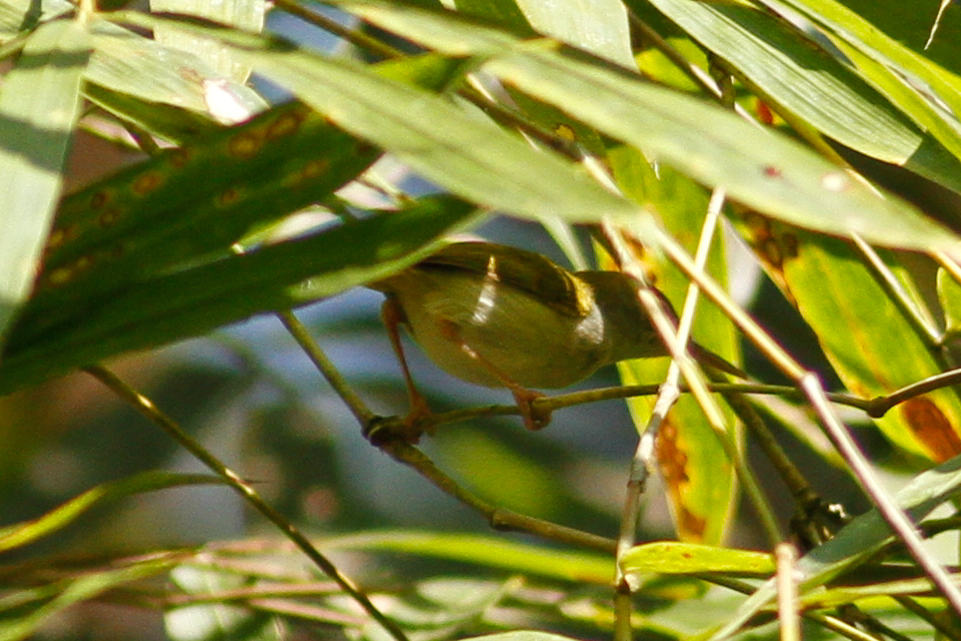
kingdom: Animalia
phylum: Chordata
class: Aves
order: Passeriformes
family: Nectariniidae
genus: Anthreptes
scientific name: Anthreptes malacensis
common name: Brown-throated sunbird
